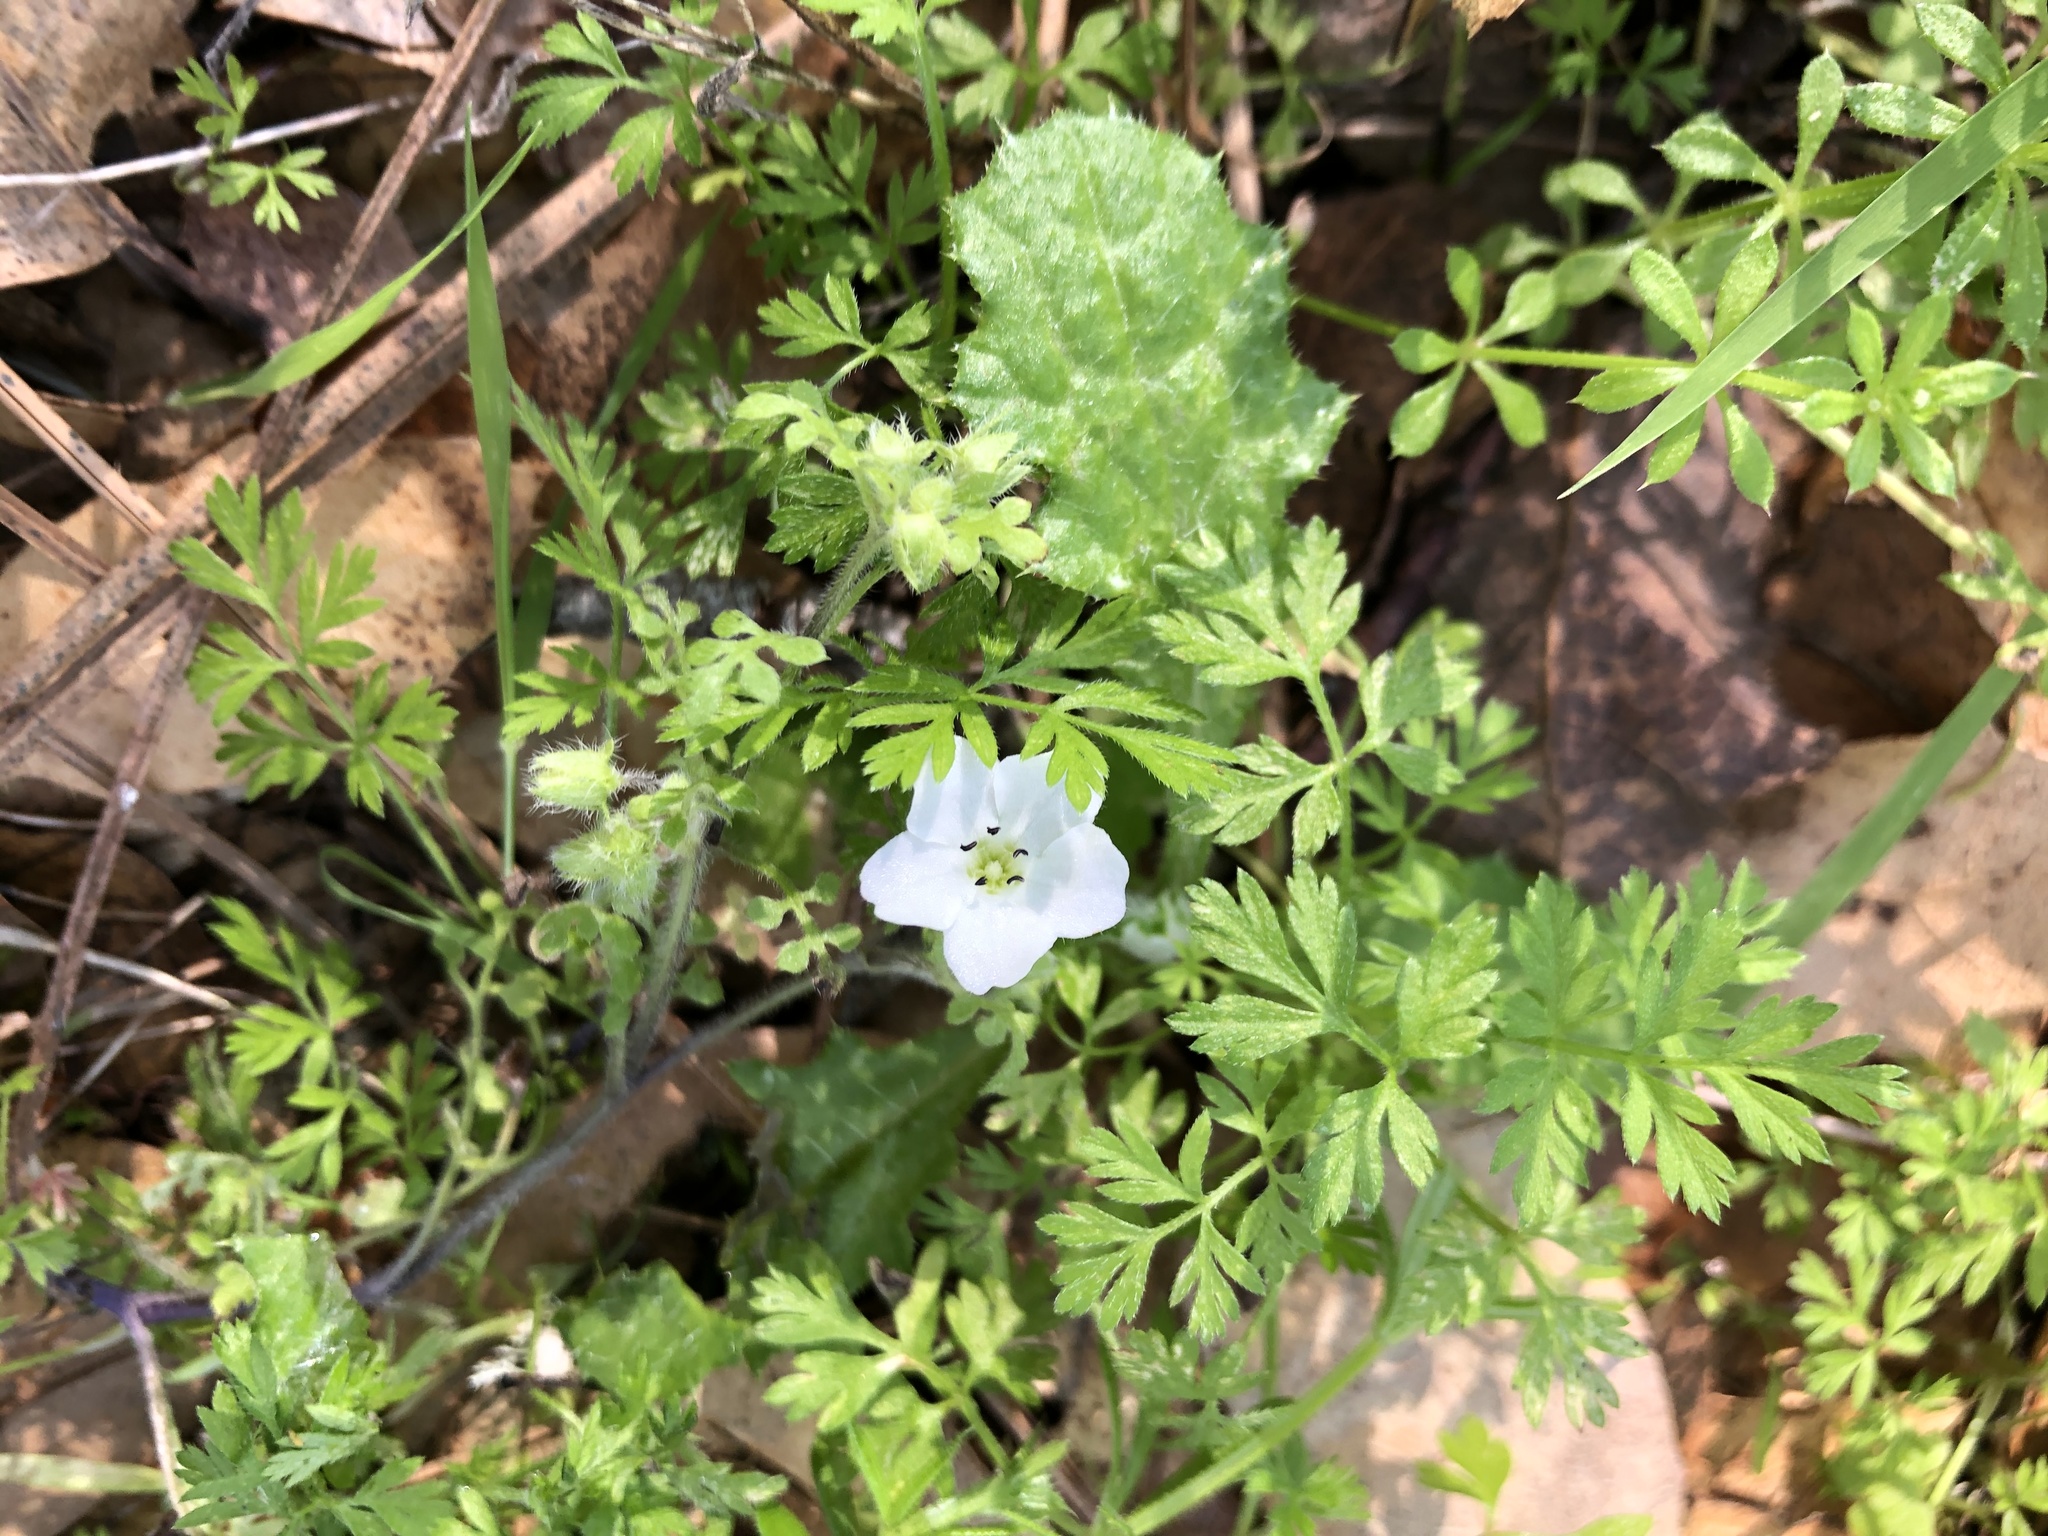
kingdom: Plantae
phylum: Tracheophyta
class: Magnoliopsida
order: Boraginales
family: Hydrophyllaceae
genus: Nemophila
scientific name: Nemophila heterophylla
